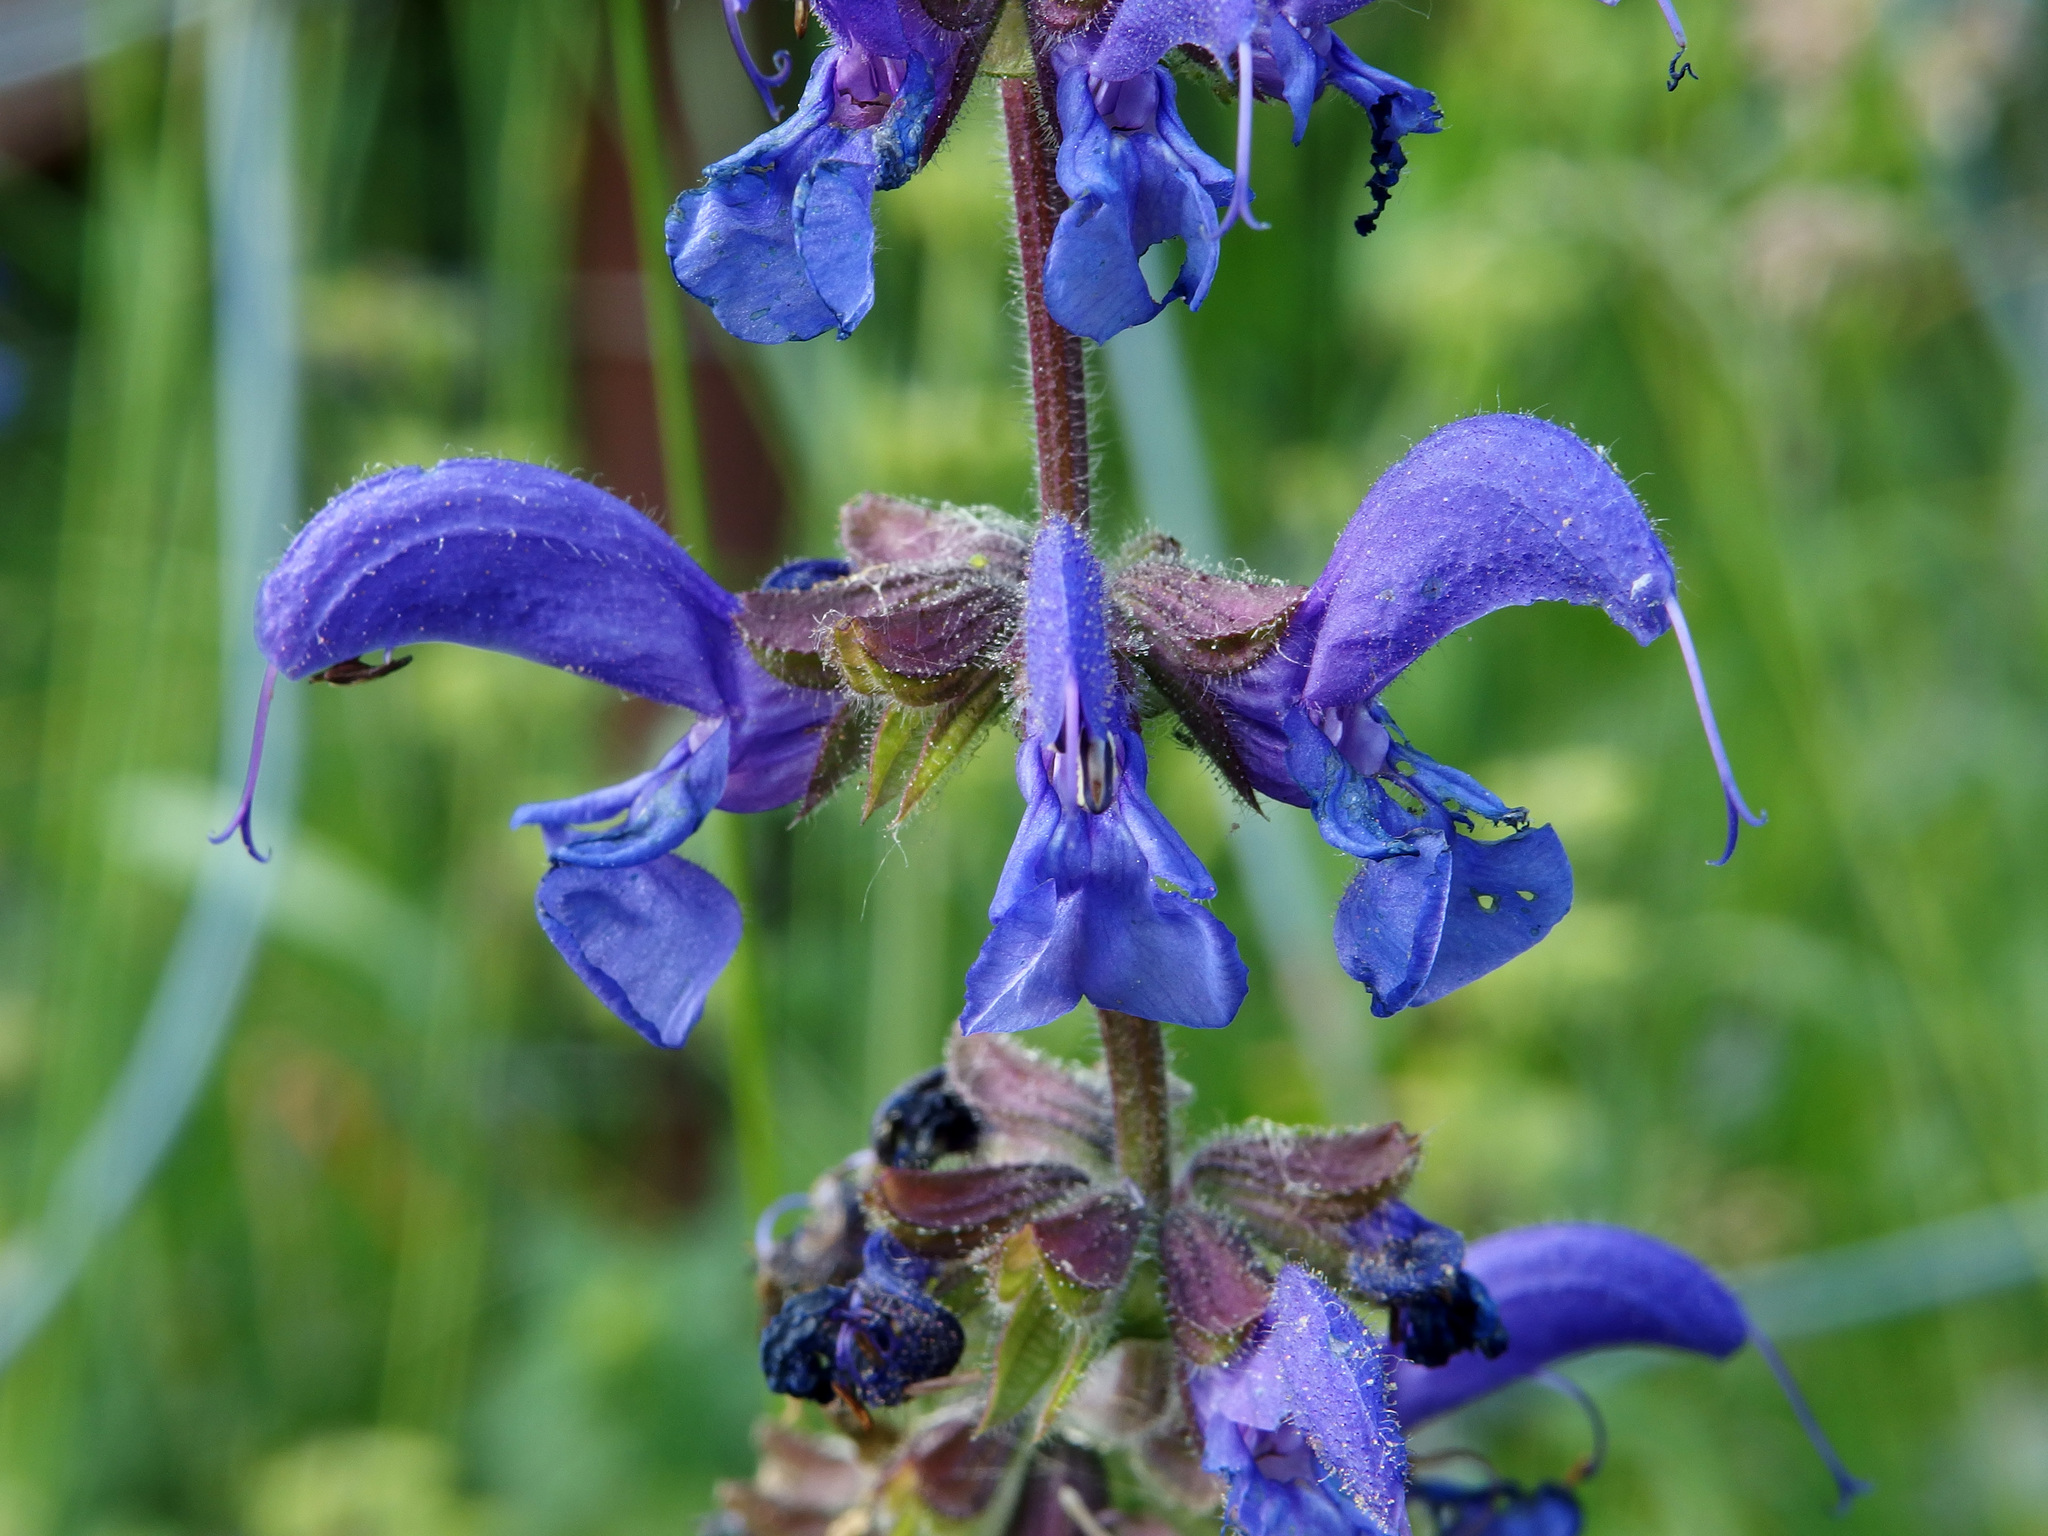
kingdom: Plantae
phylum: Tracheophyta
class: Magnoliopsida
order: Lamiales
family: Lamiaceae
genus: Salvia
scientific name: Salvia pratensis
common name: Meadow sage
